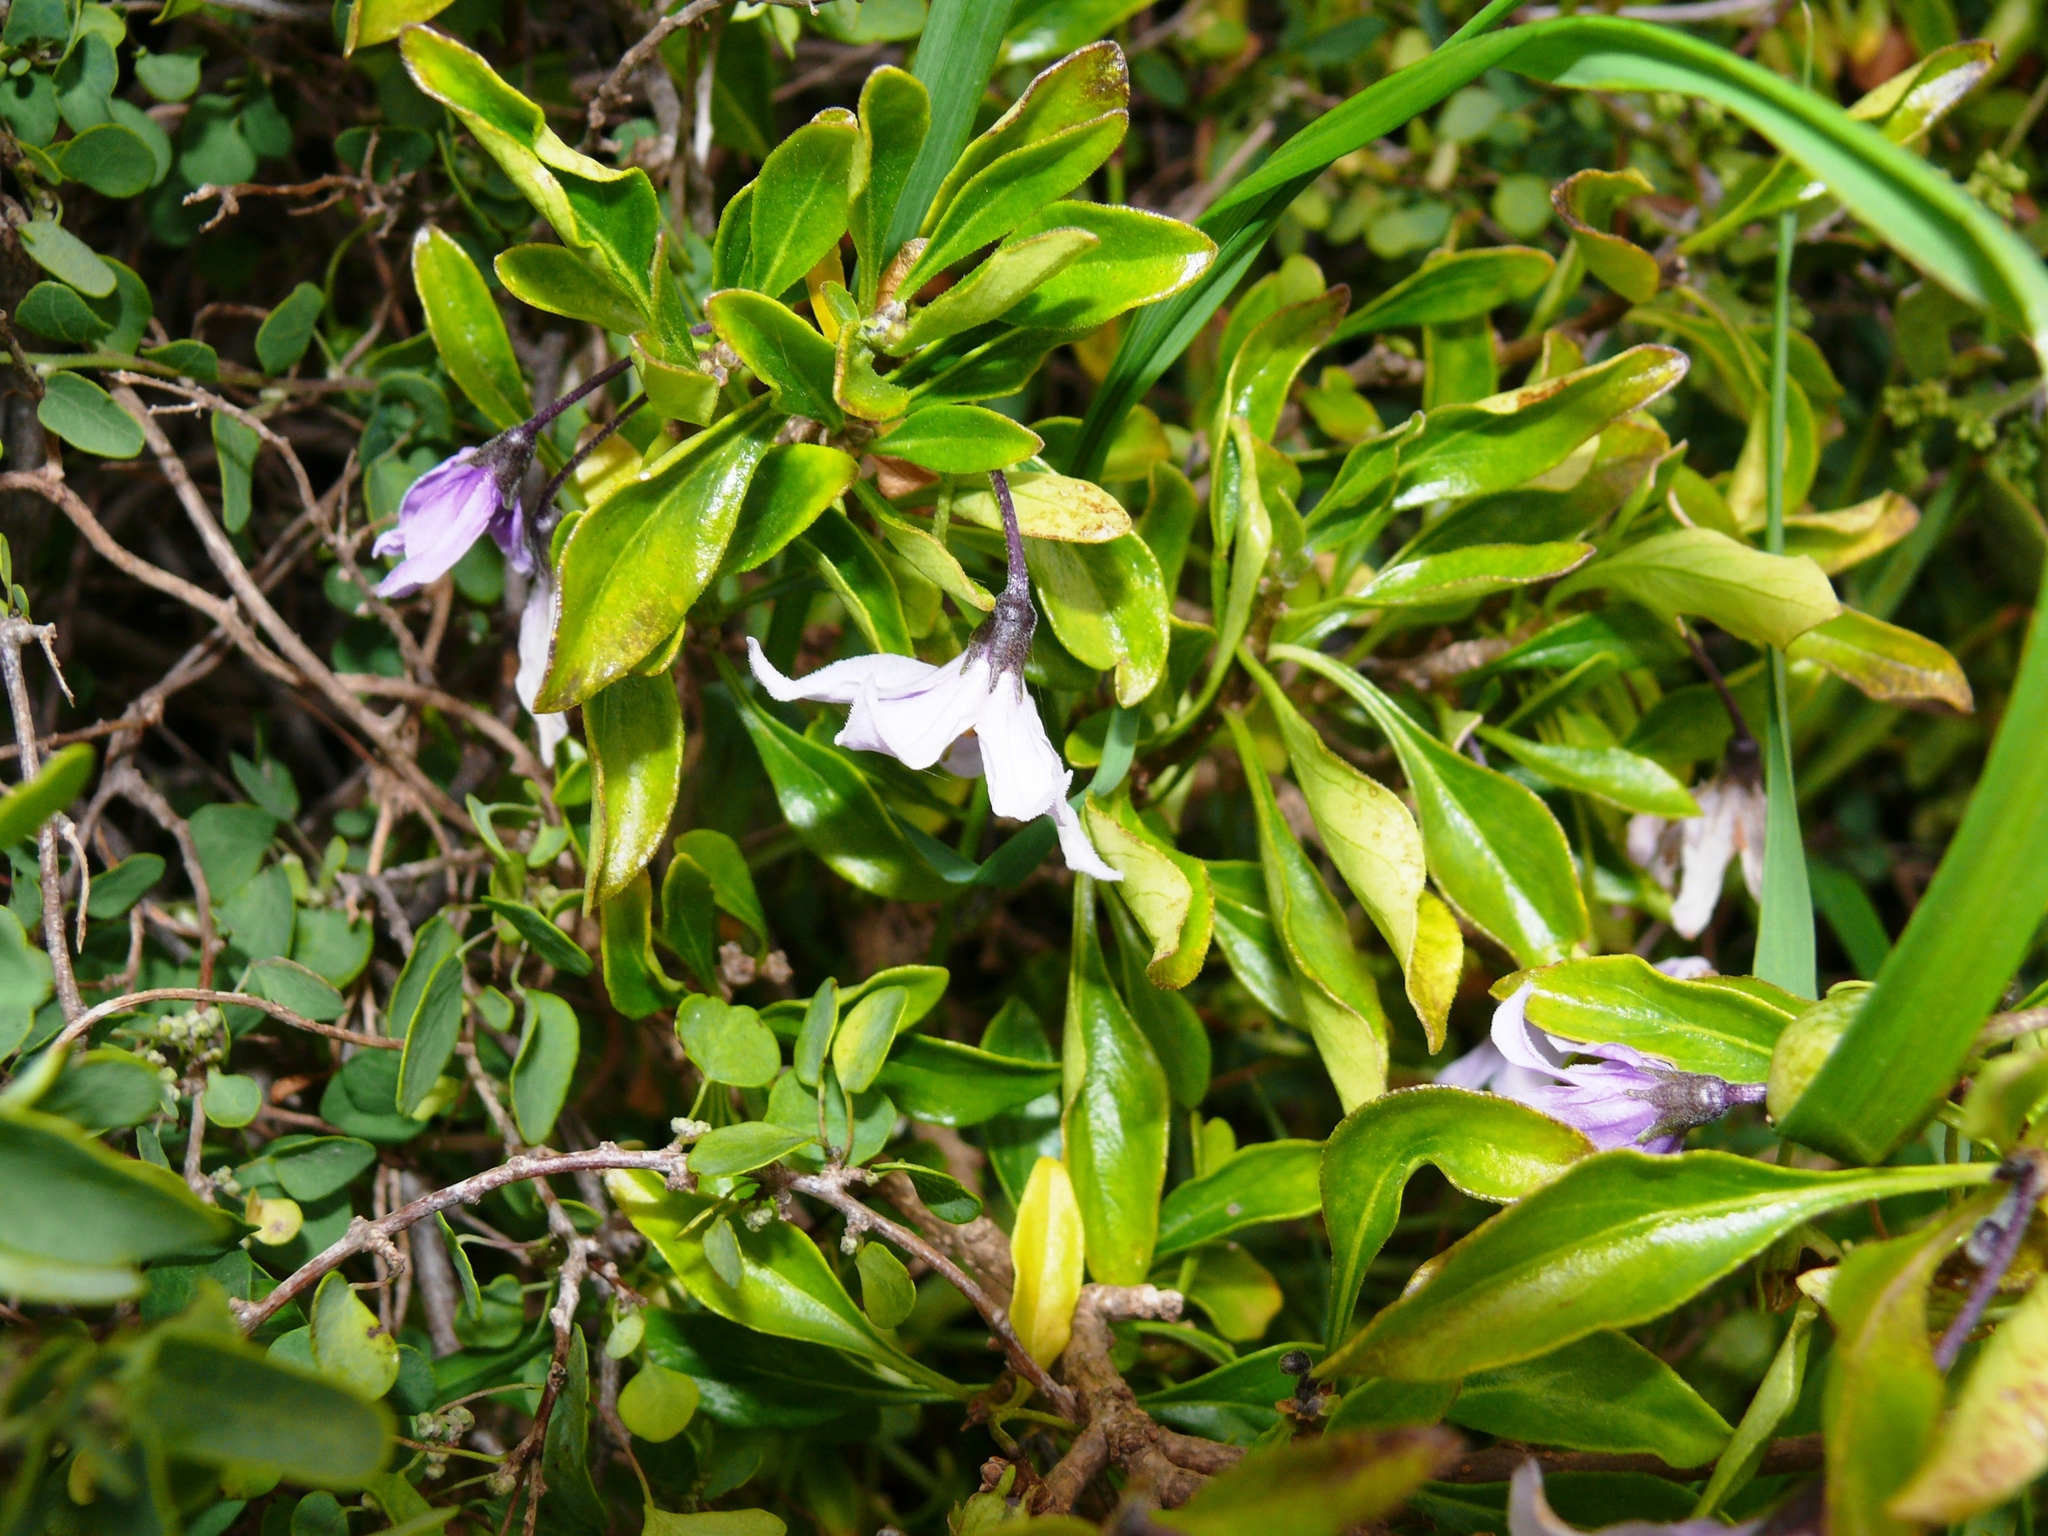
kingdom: Plantae
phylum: Tracheophyta
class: Magnoliopsida
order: Solanales
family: Solanaceae
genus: Solanum
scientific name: Solanum guineense
